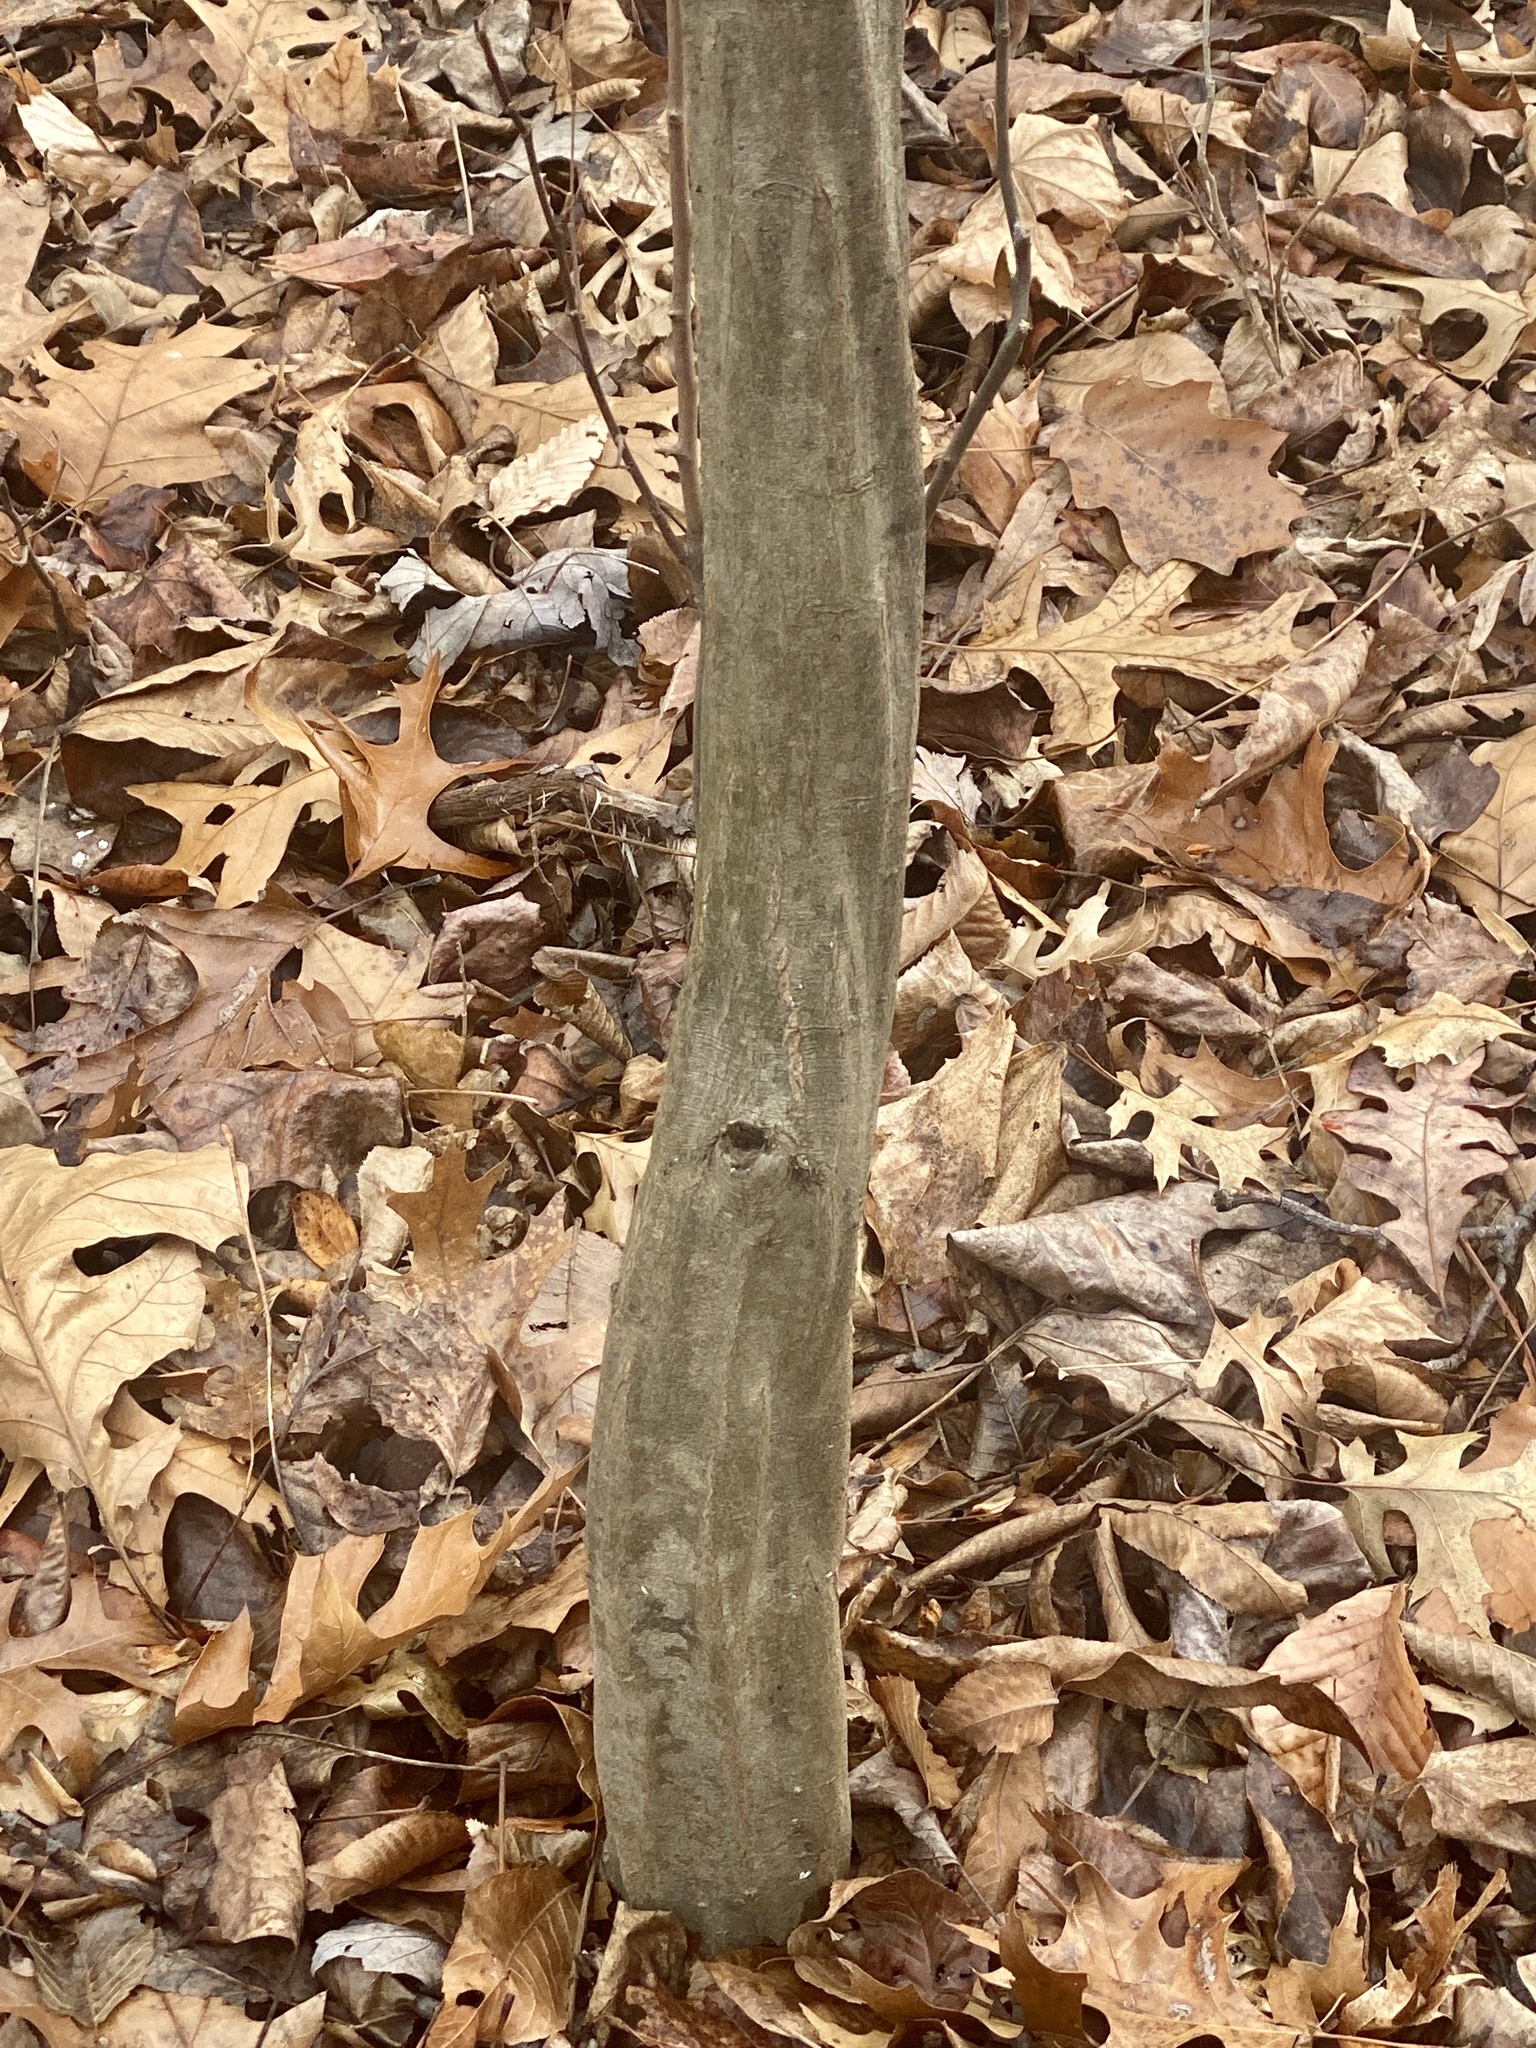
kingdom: Plantae
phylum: Tracheophyta
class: Magnoliopsida
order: Fagales
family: Betulaceae
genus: Carpinus
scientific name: Carpinus caroliniana
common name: American hornbeam
